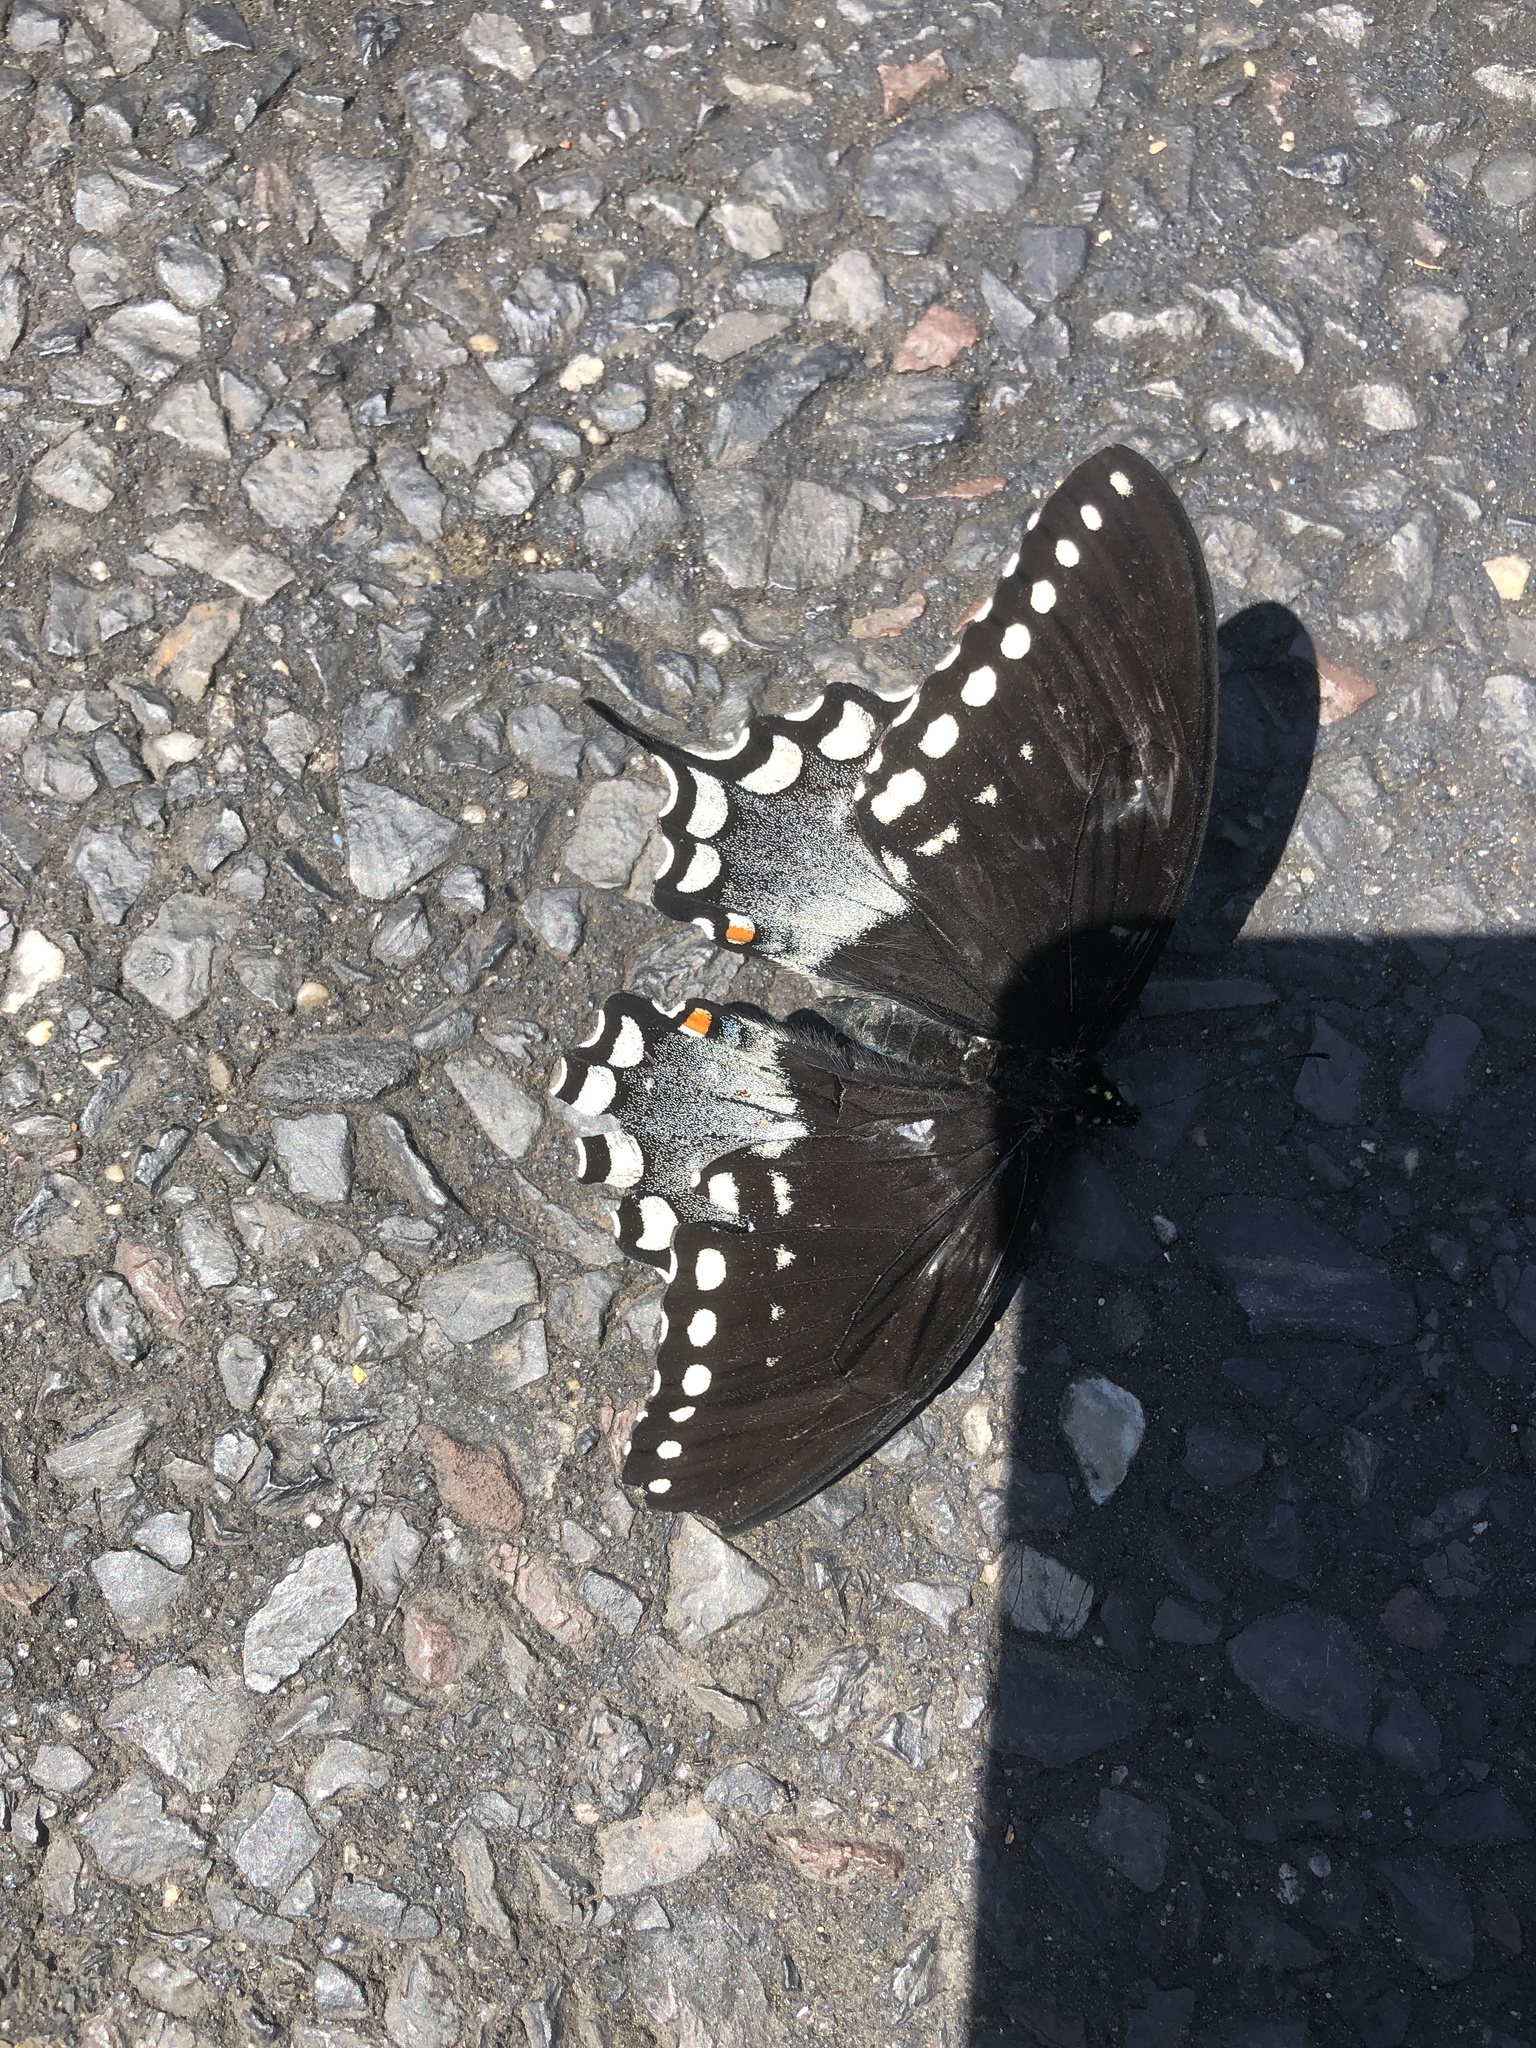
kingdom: Animalia
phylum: Arthropoda
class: Insecta
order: Lepidoptera
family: Papilionidae
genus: Papilio
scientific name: Papilio troilus
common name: Spicebush swallowtail
